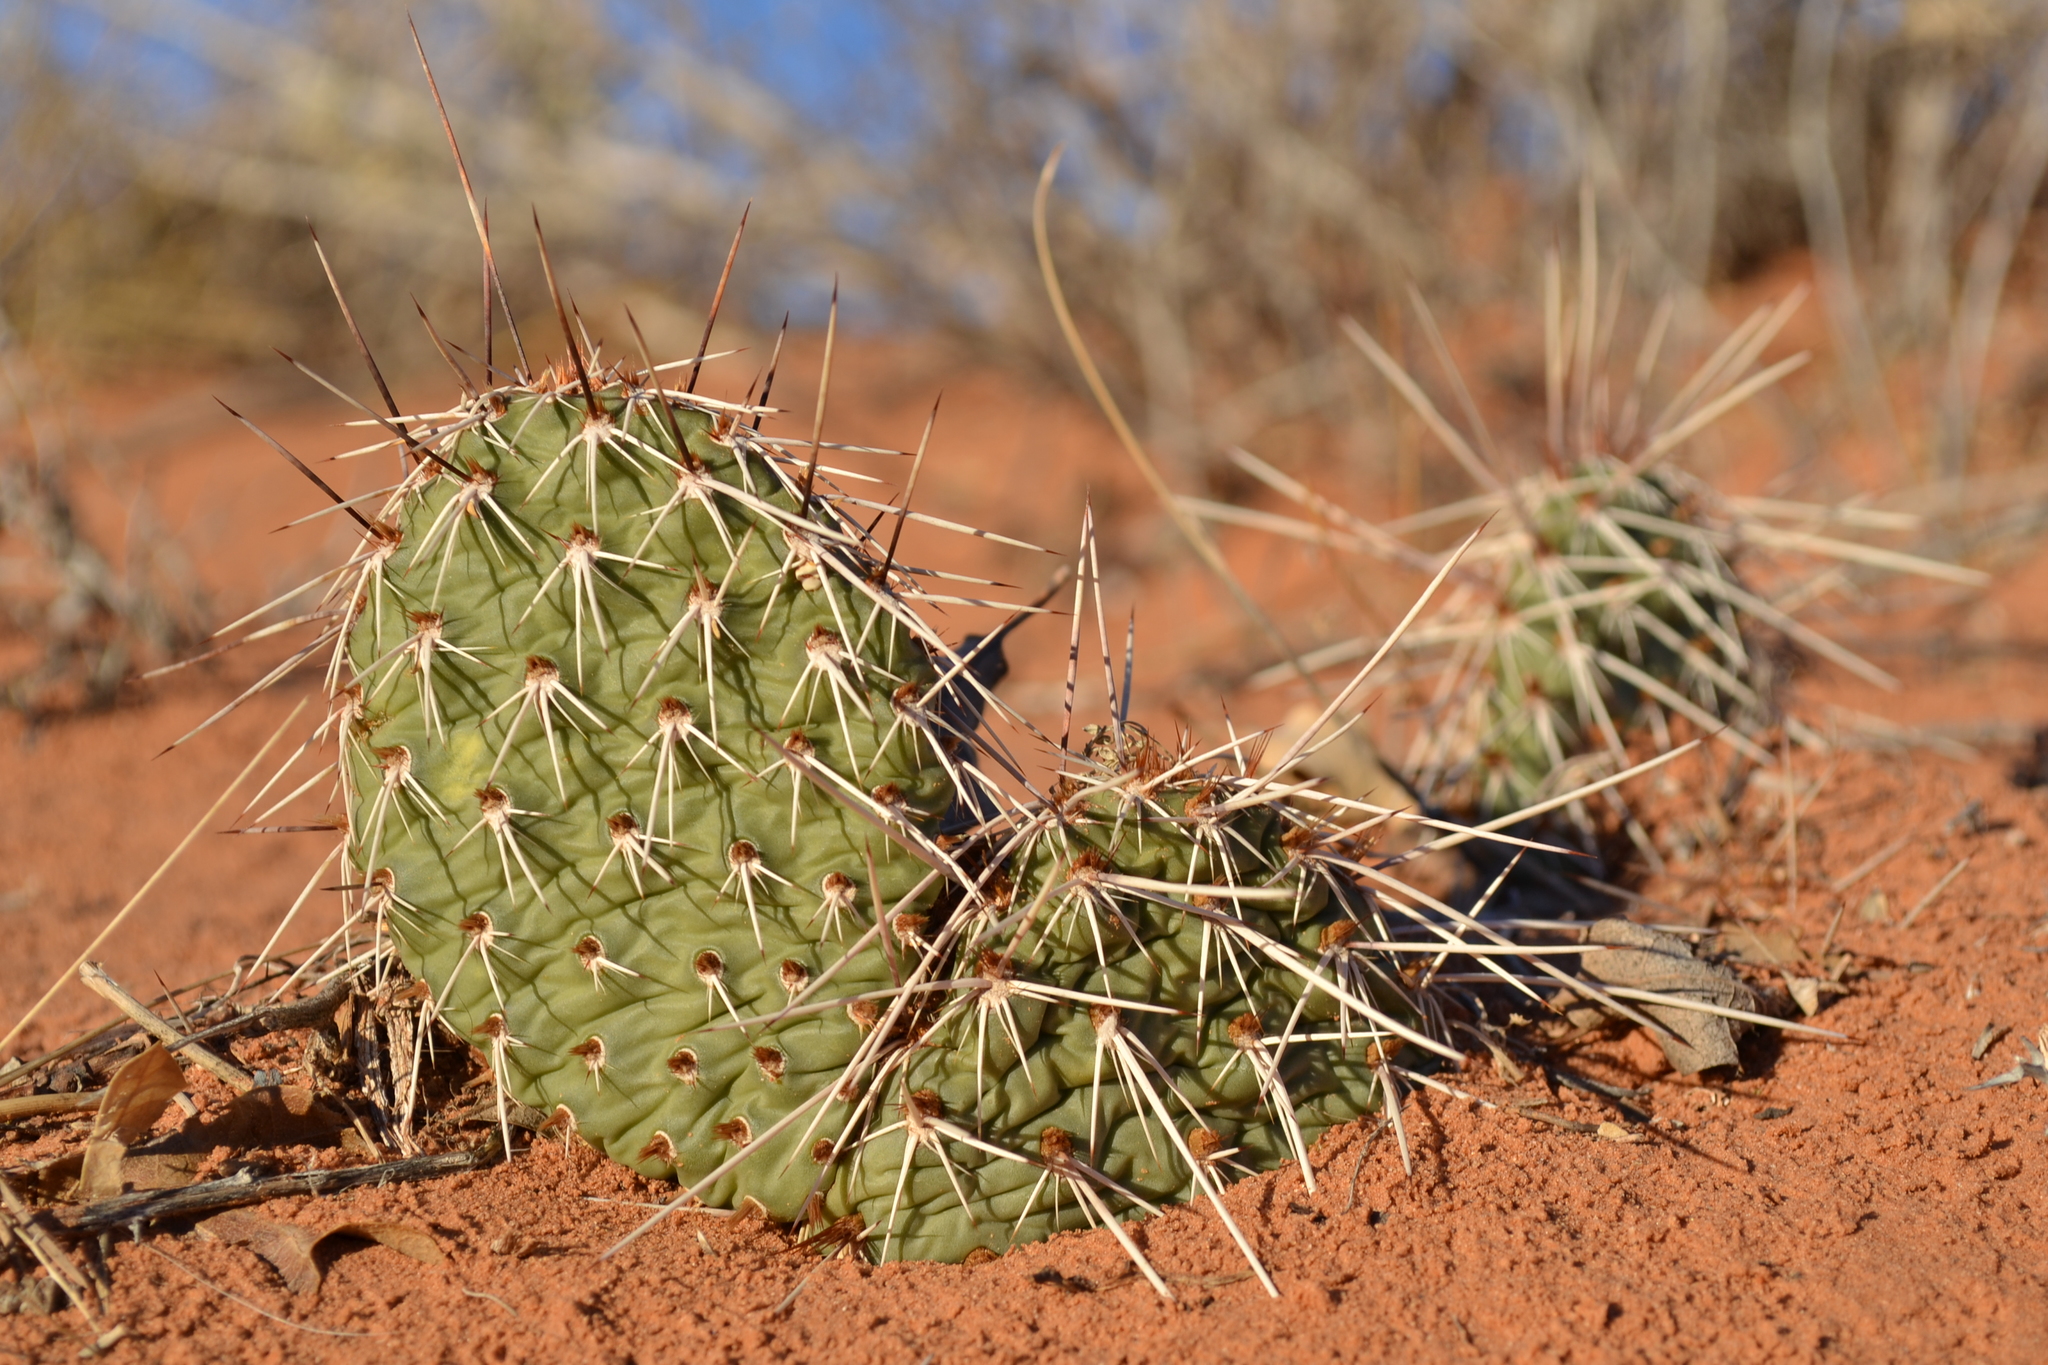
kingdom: Plantae
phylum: Tracheophyta
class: Magnoliopsida
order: Caryophyllales
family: Cactaceae
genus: Opuntia
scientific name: Opuntia polyacantha
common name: Plains prickly-pear
